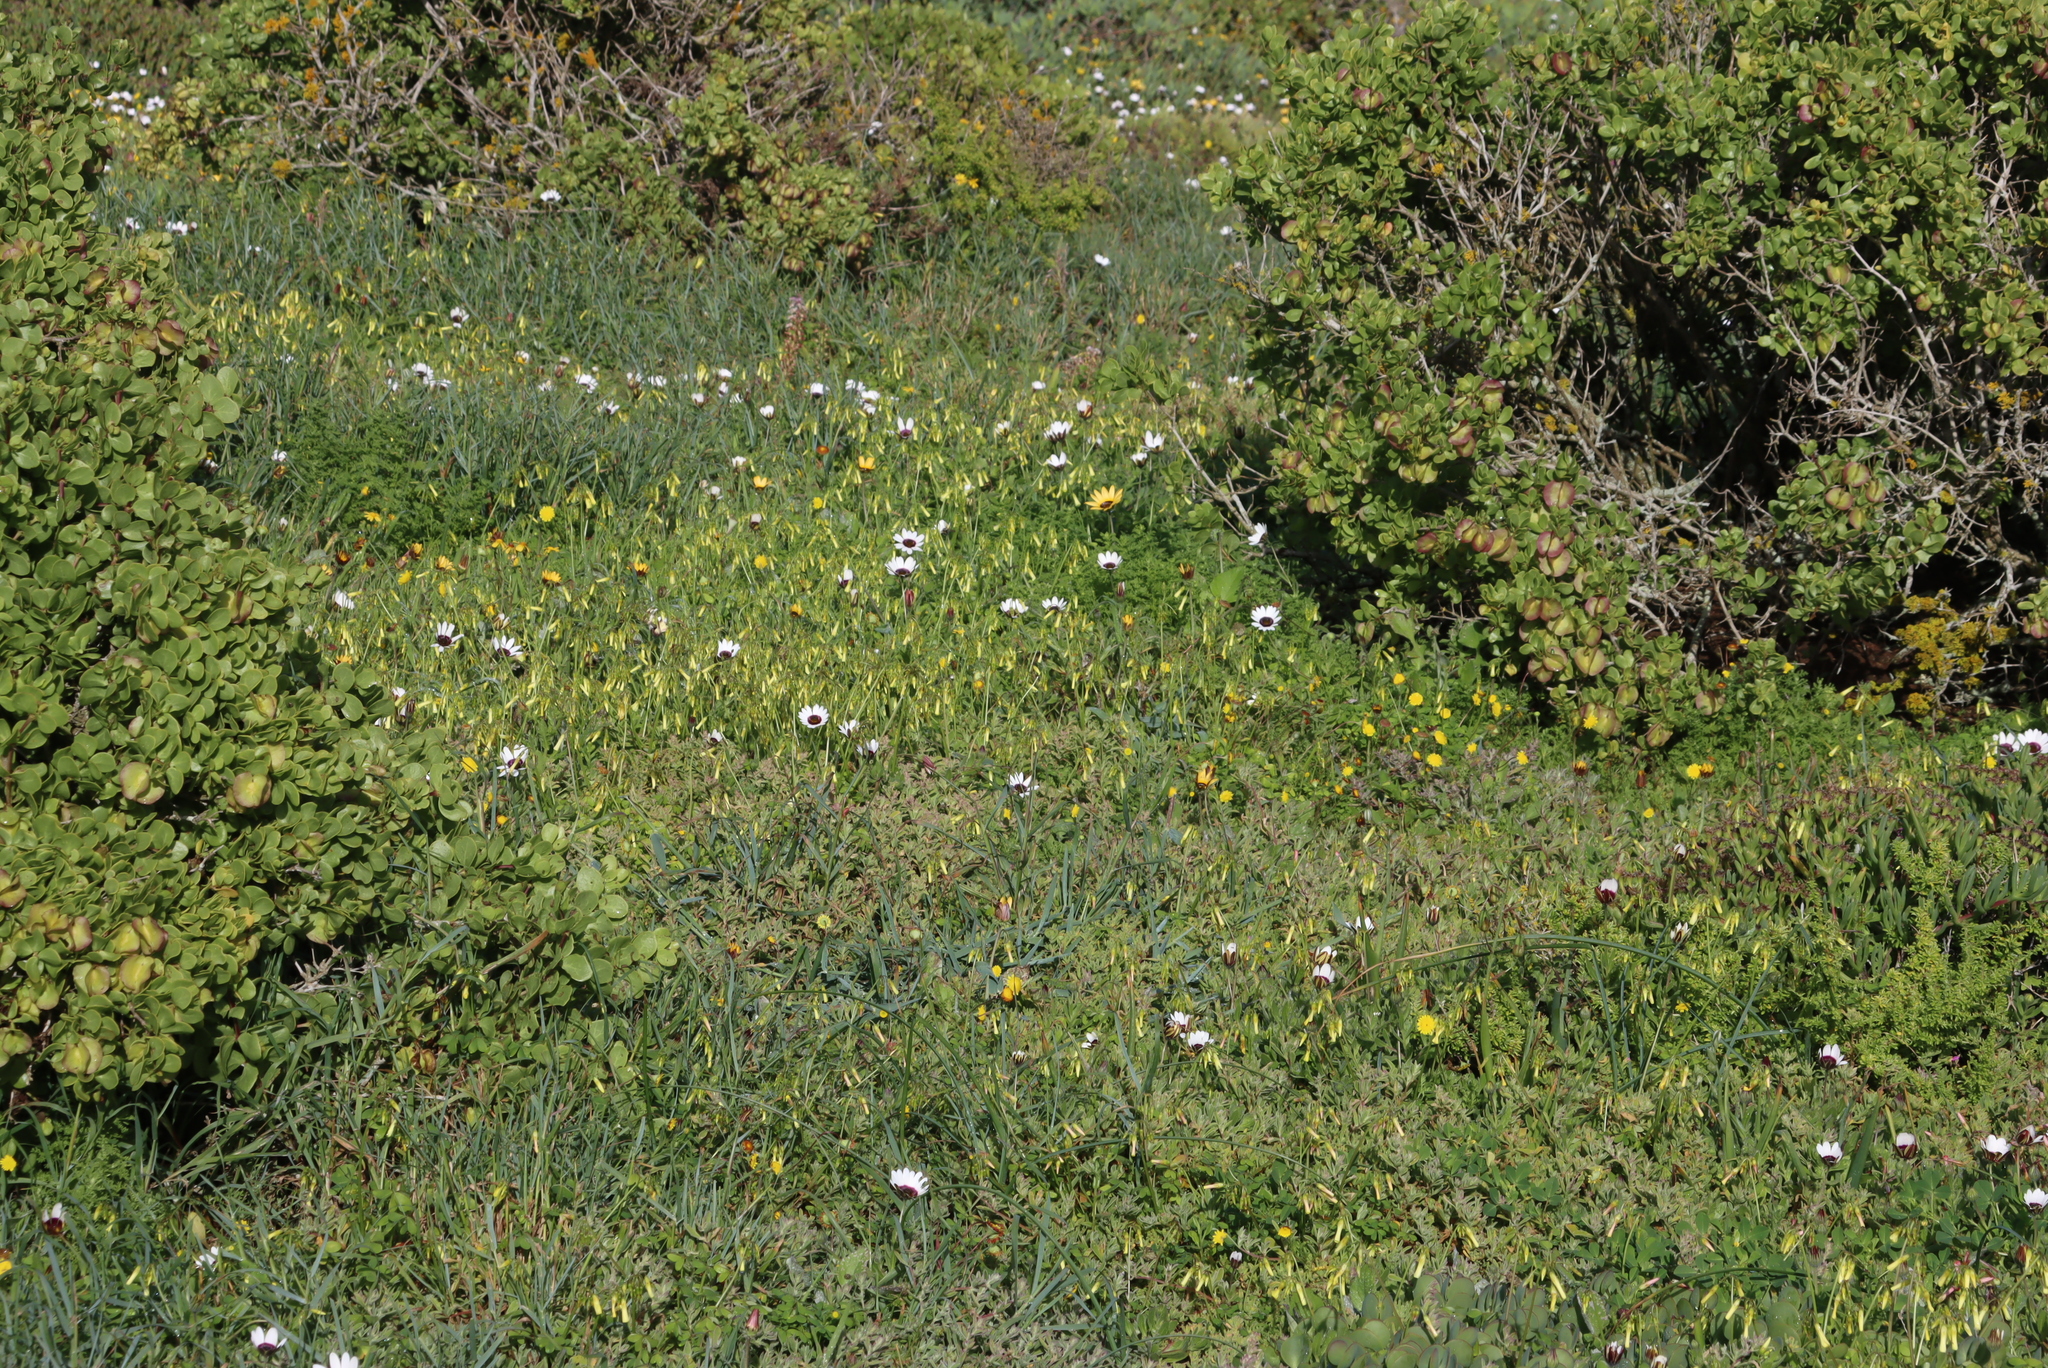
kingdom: Plantae
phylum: Tracheophyta
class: Magnoliopsida
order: Oxalidales
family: Oxalidaceae
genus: Oxalis
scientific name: Oxalis pes-caprae
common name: Bermuda-buttercup
